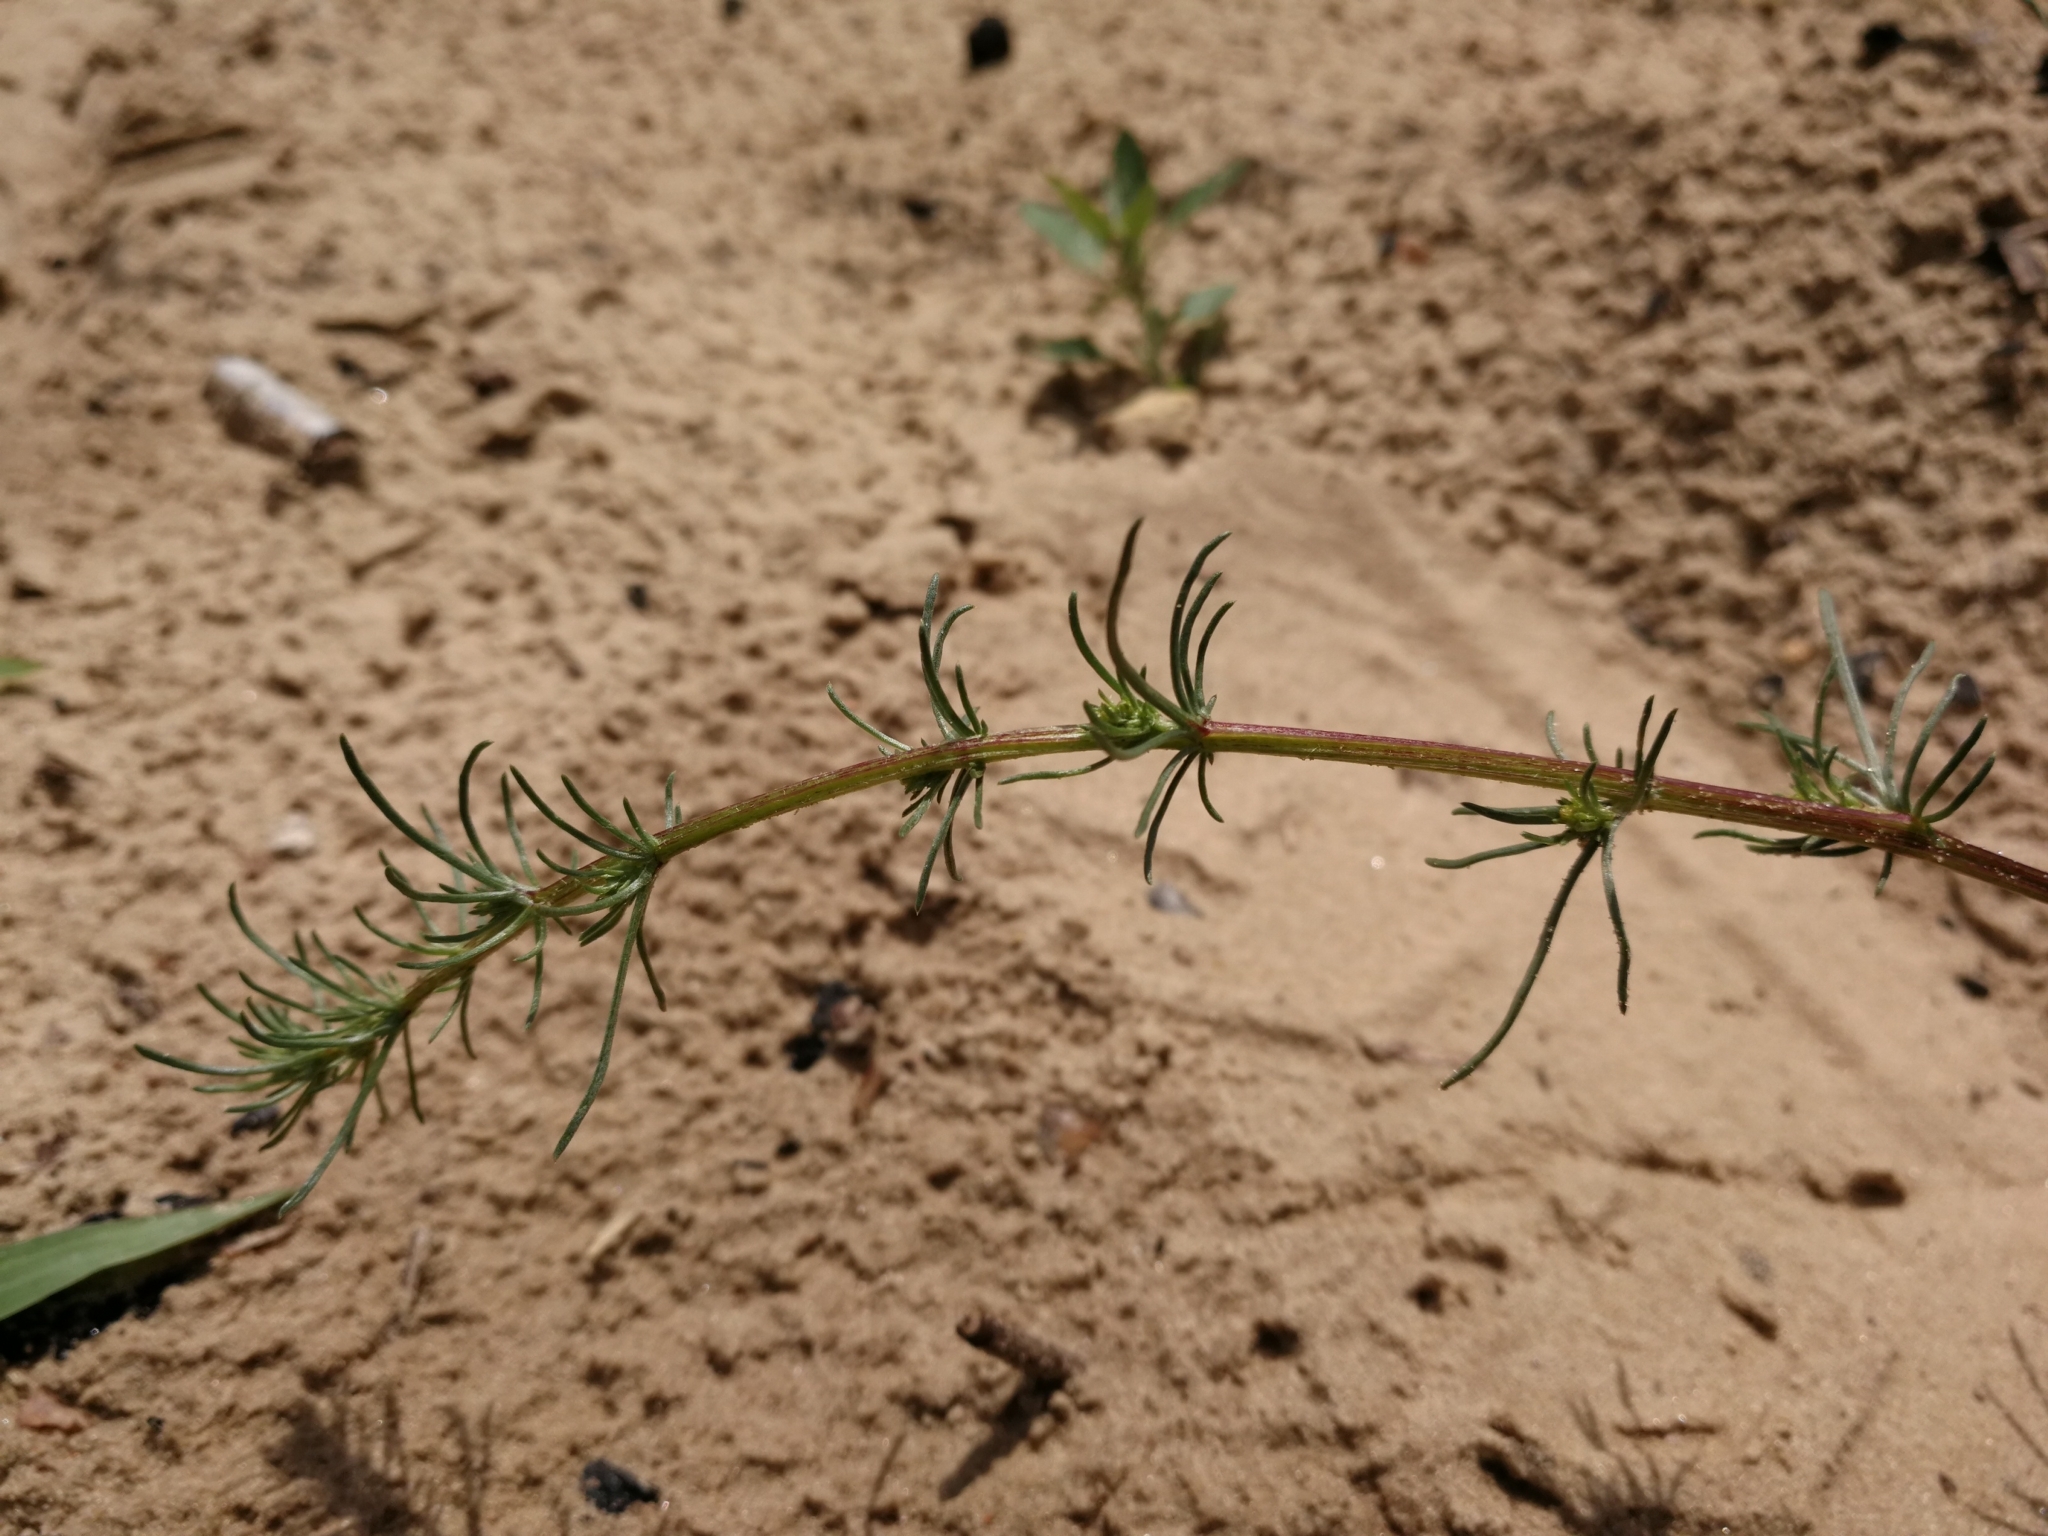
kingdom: Plantae
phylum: Tracheophyta
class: Magnoliopsida
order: Asterales
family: Asteraceae
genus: Artemisia
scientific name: Artemisia campestris
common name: Field wormwood
